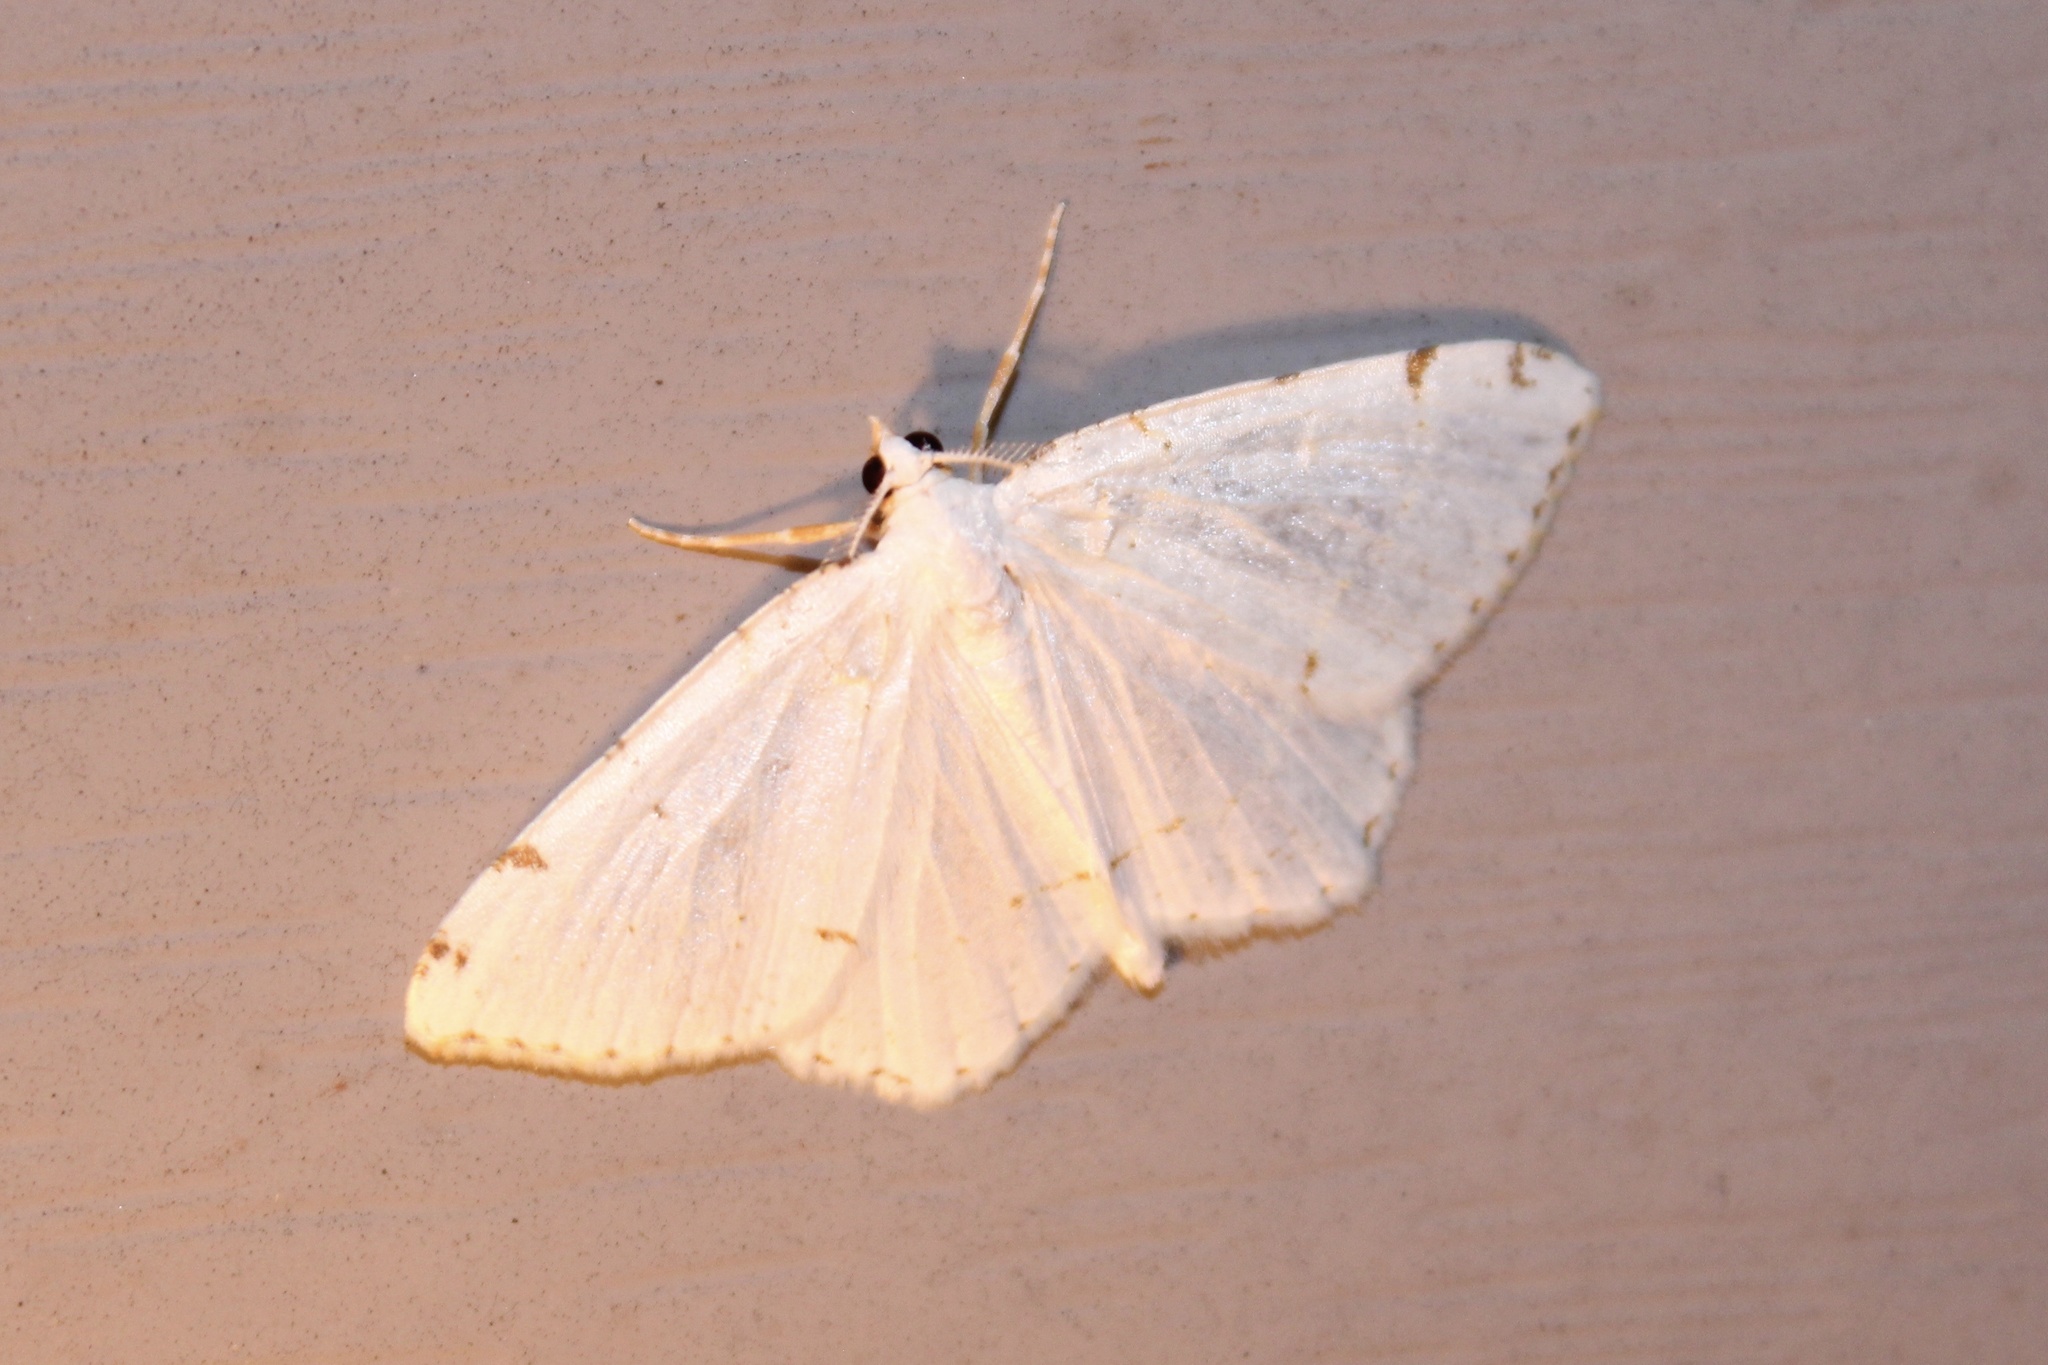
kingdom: Animalia
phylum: Arthropoda
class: Insecta
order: Lepidoptera
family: Geometridae
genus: Macaria
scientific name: Macaria pustularia
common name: Lesser maple spanworm moth
